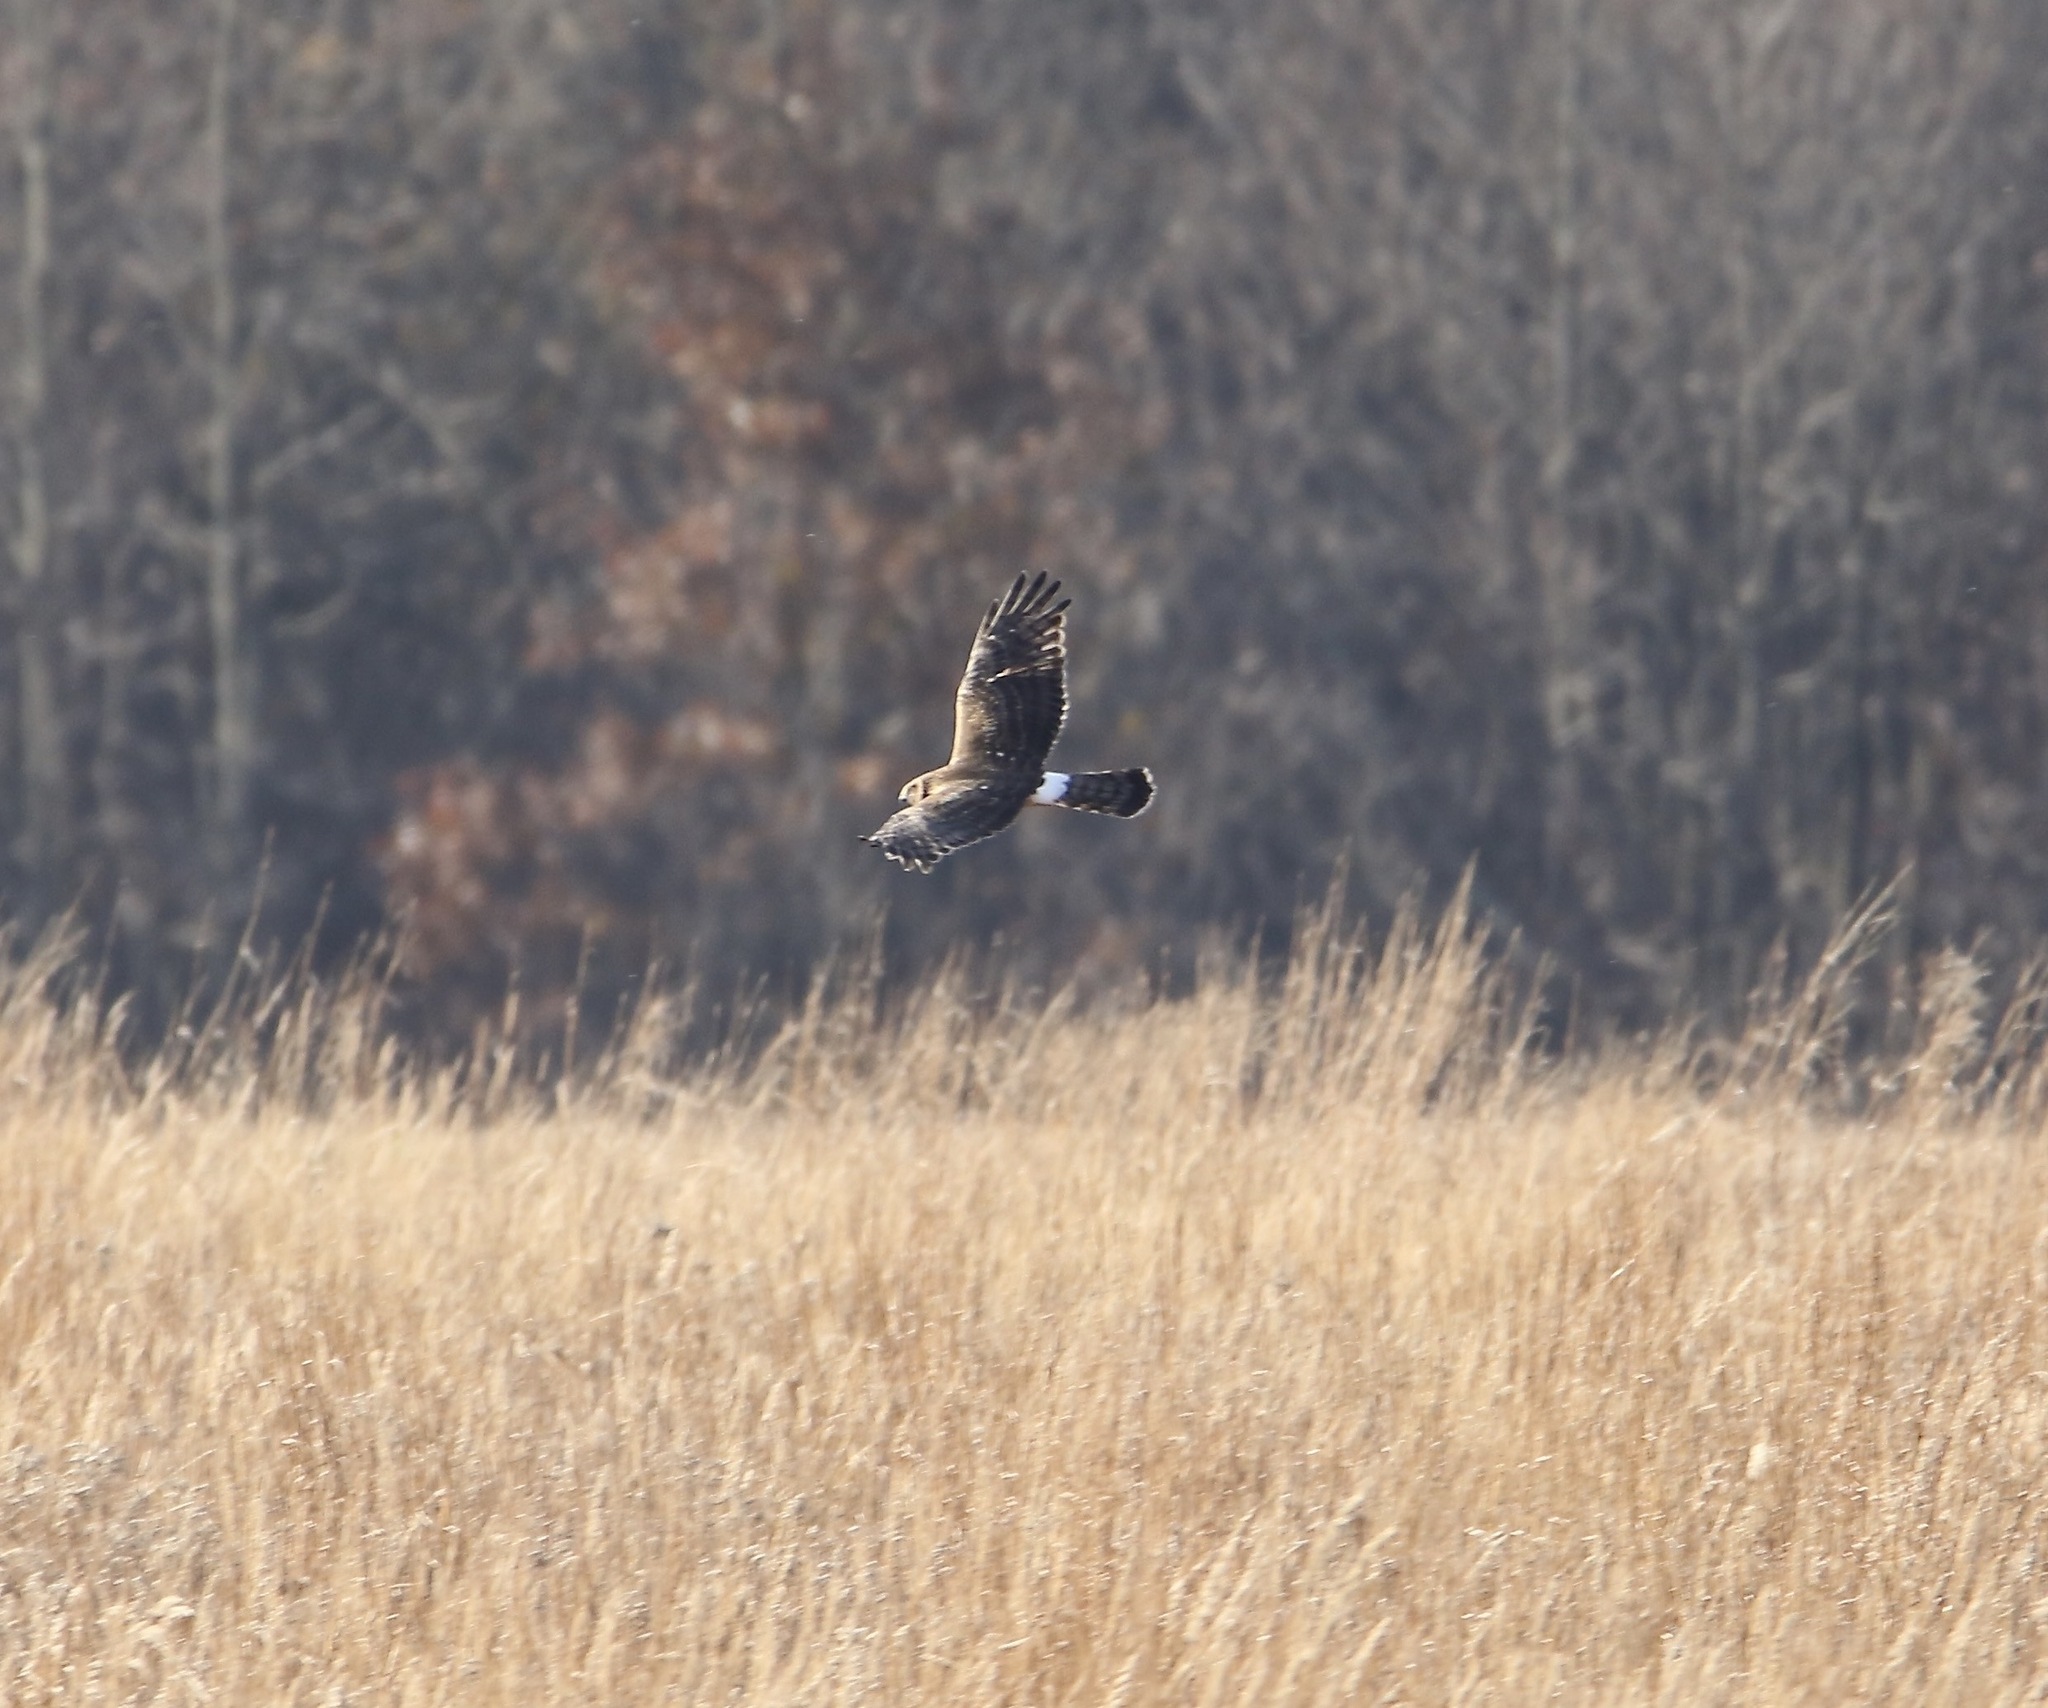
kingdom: Animalia
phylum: Chordata
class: Aves
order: Accipitriformes
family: Accipitridae
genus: Circus
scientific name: Circus cyaneus
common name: Hen harrier
